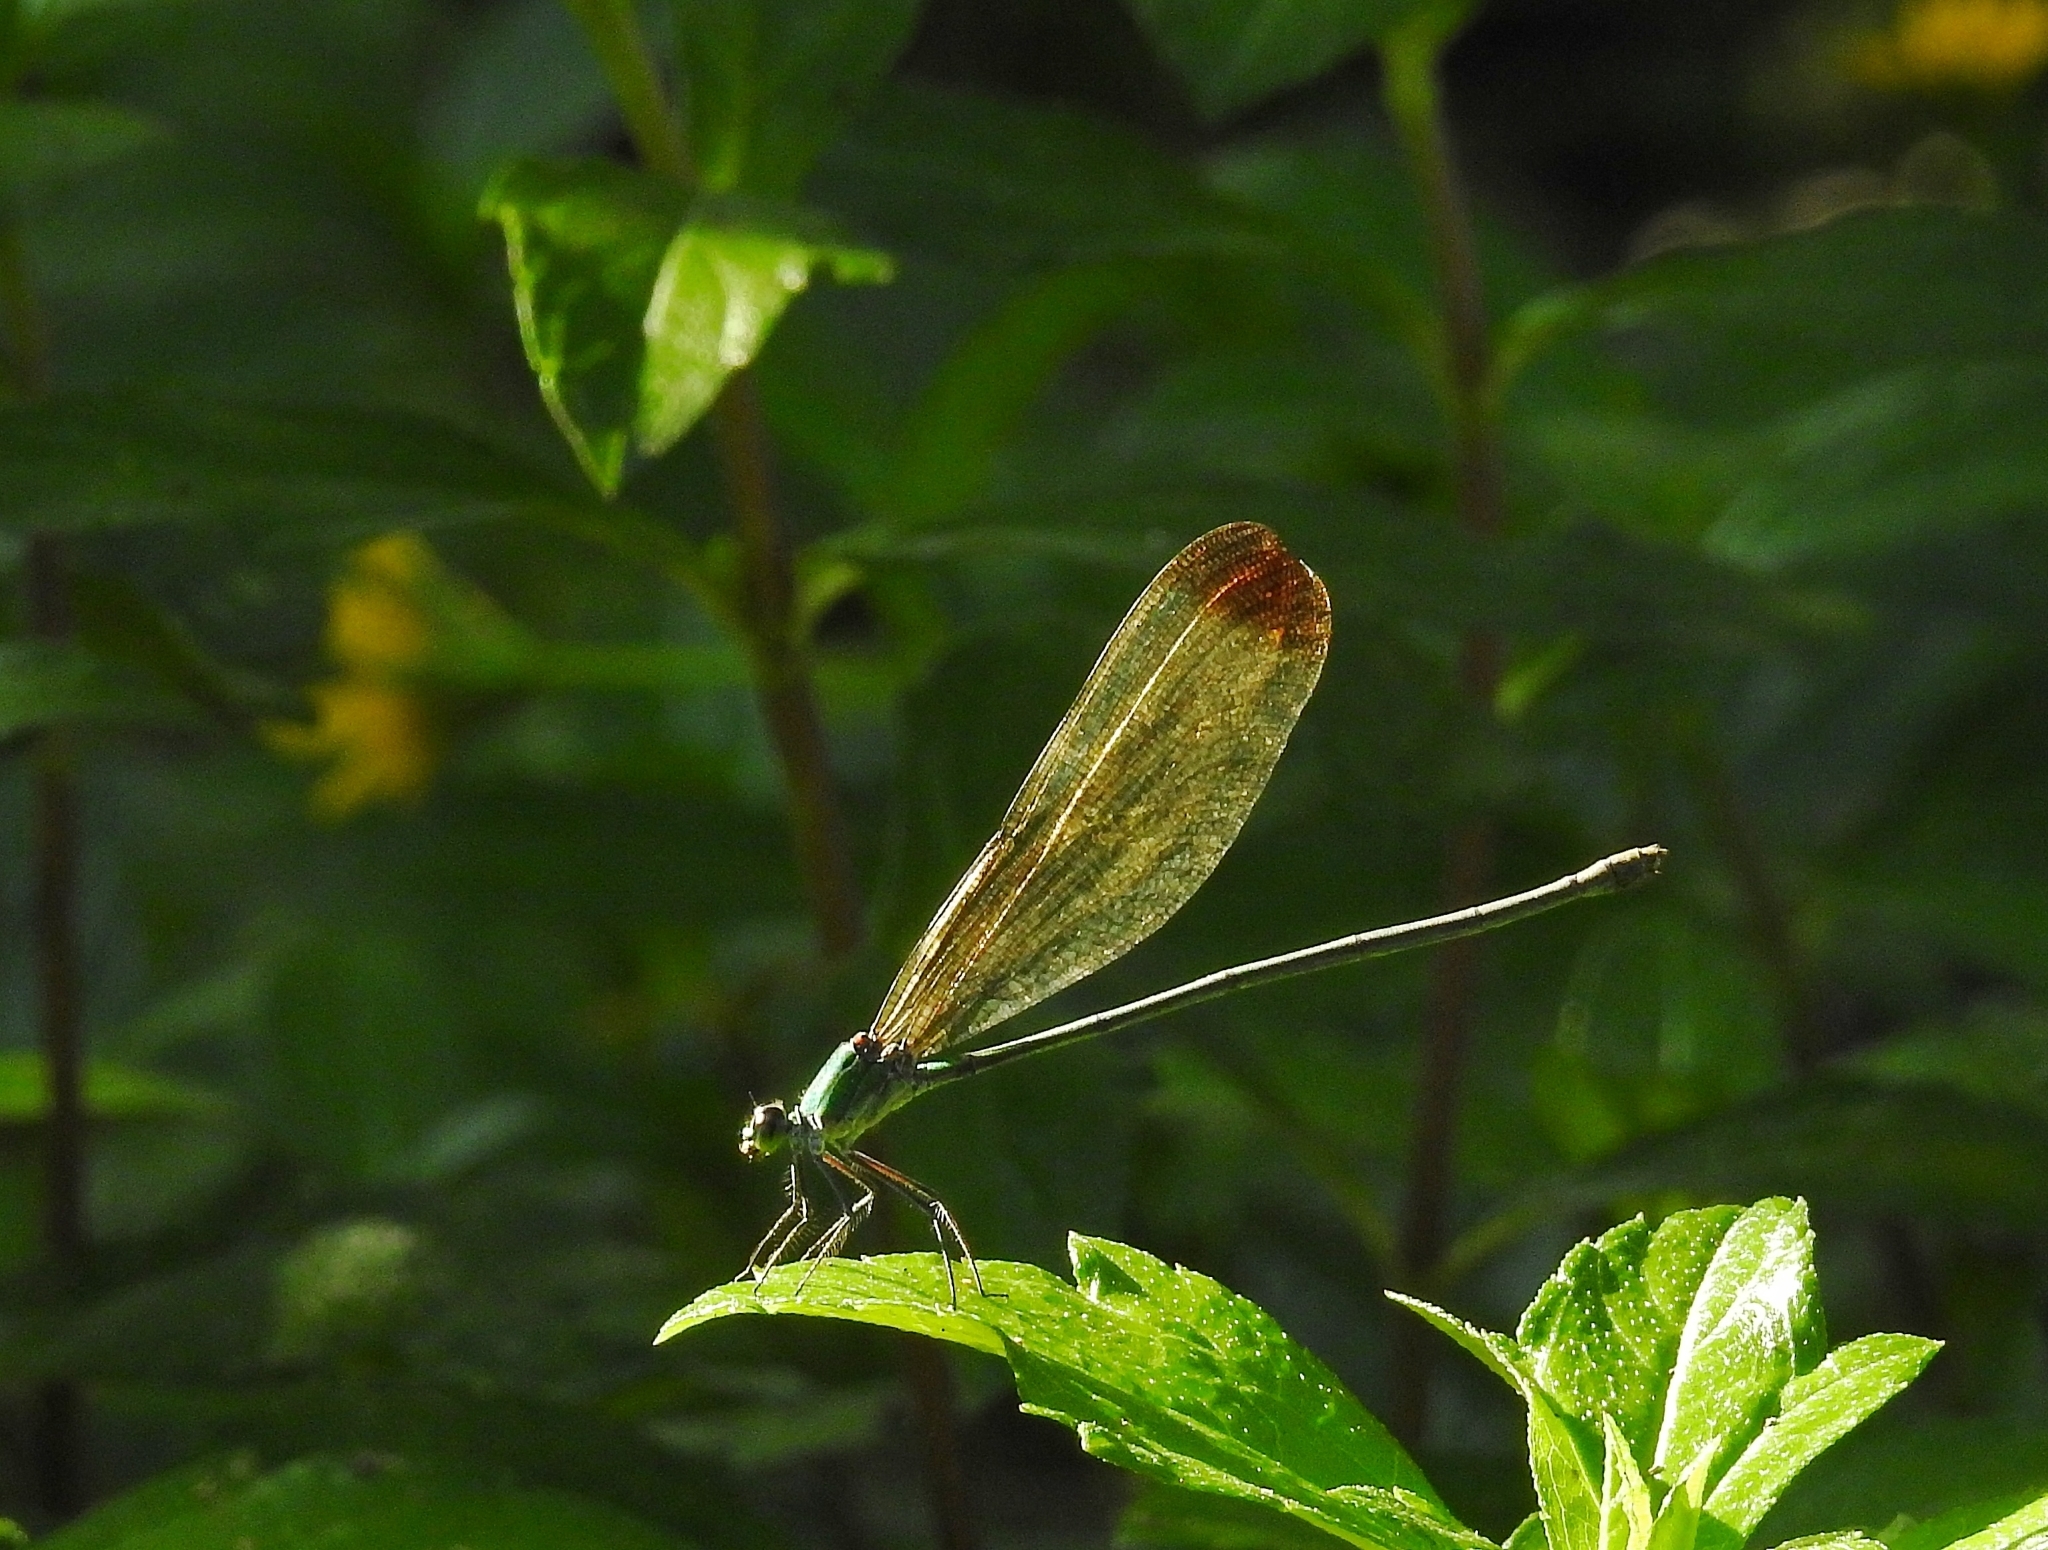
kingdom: Animalia
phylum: Arthropoda
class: Insecta
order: Odonata
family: Calopterygidae
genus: Vestalis
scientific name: Vestalis apicalis
